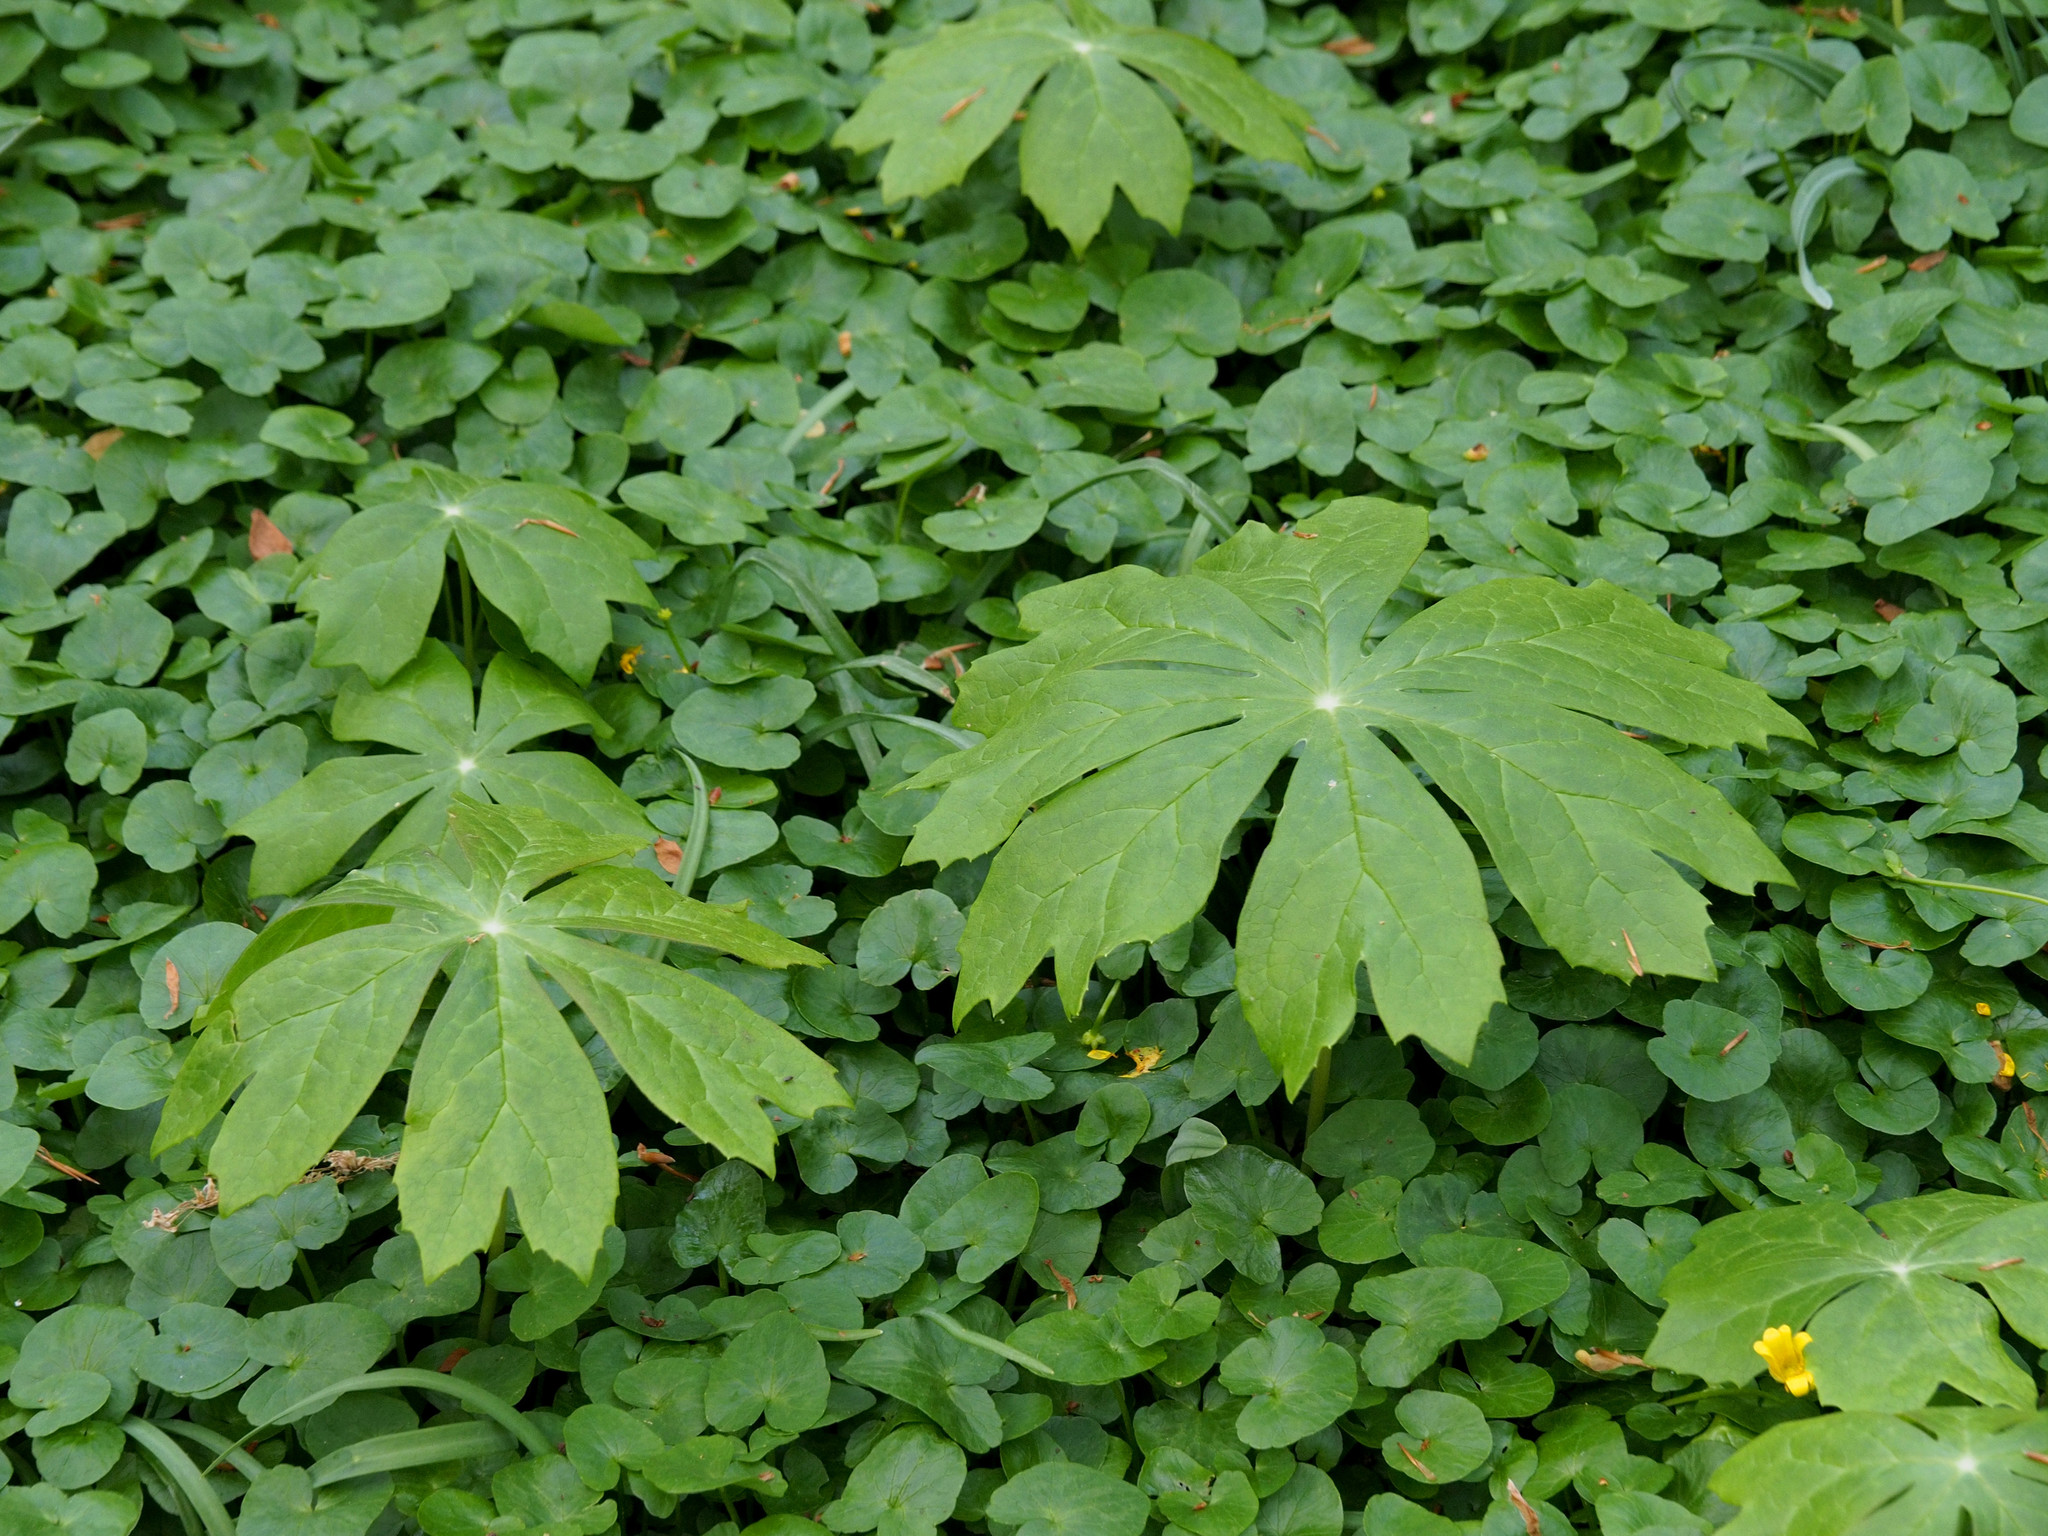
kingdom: Plantae
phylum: Tracheophyta
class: Magnoliopsida
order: Ranunculales
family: Berberidaceae
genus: Podophyllum
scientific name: Podophyllum peltatum
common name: Wild mandrake
